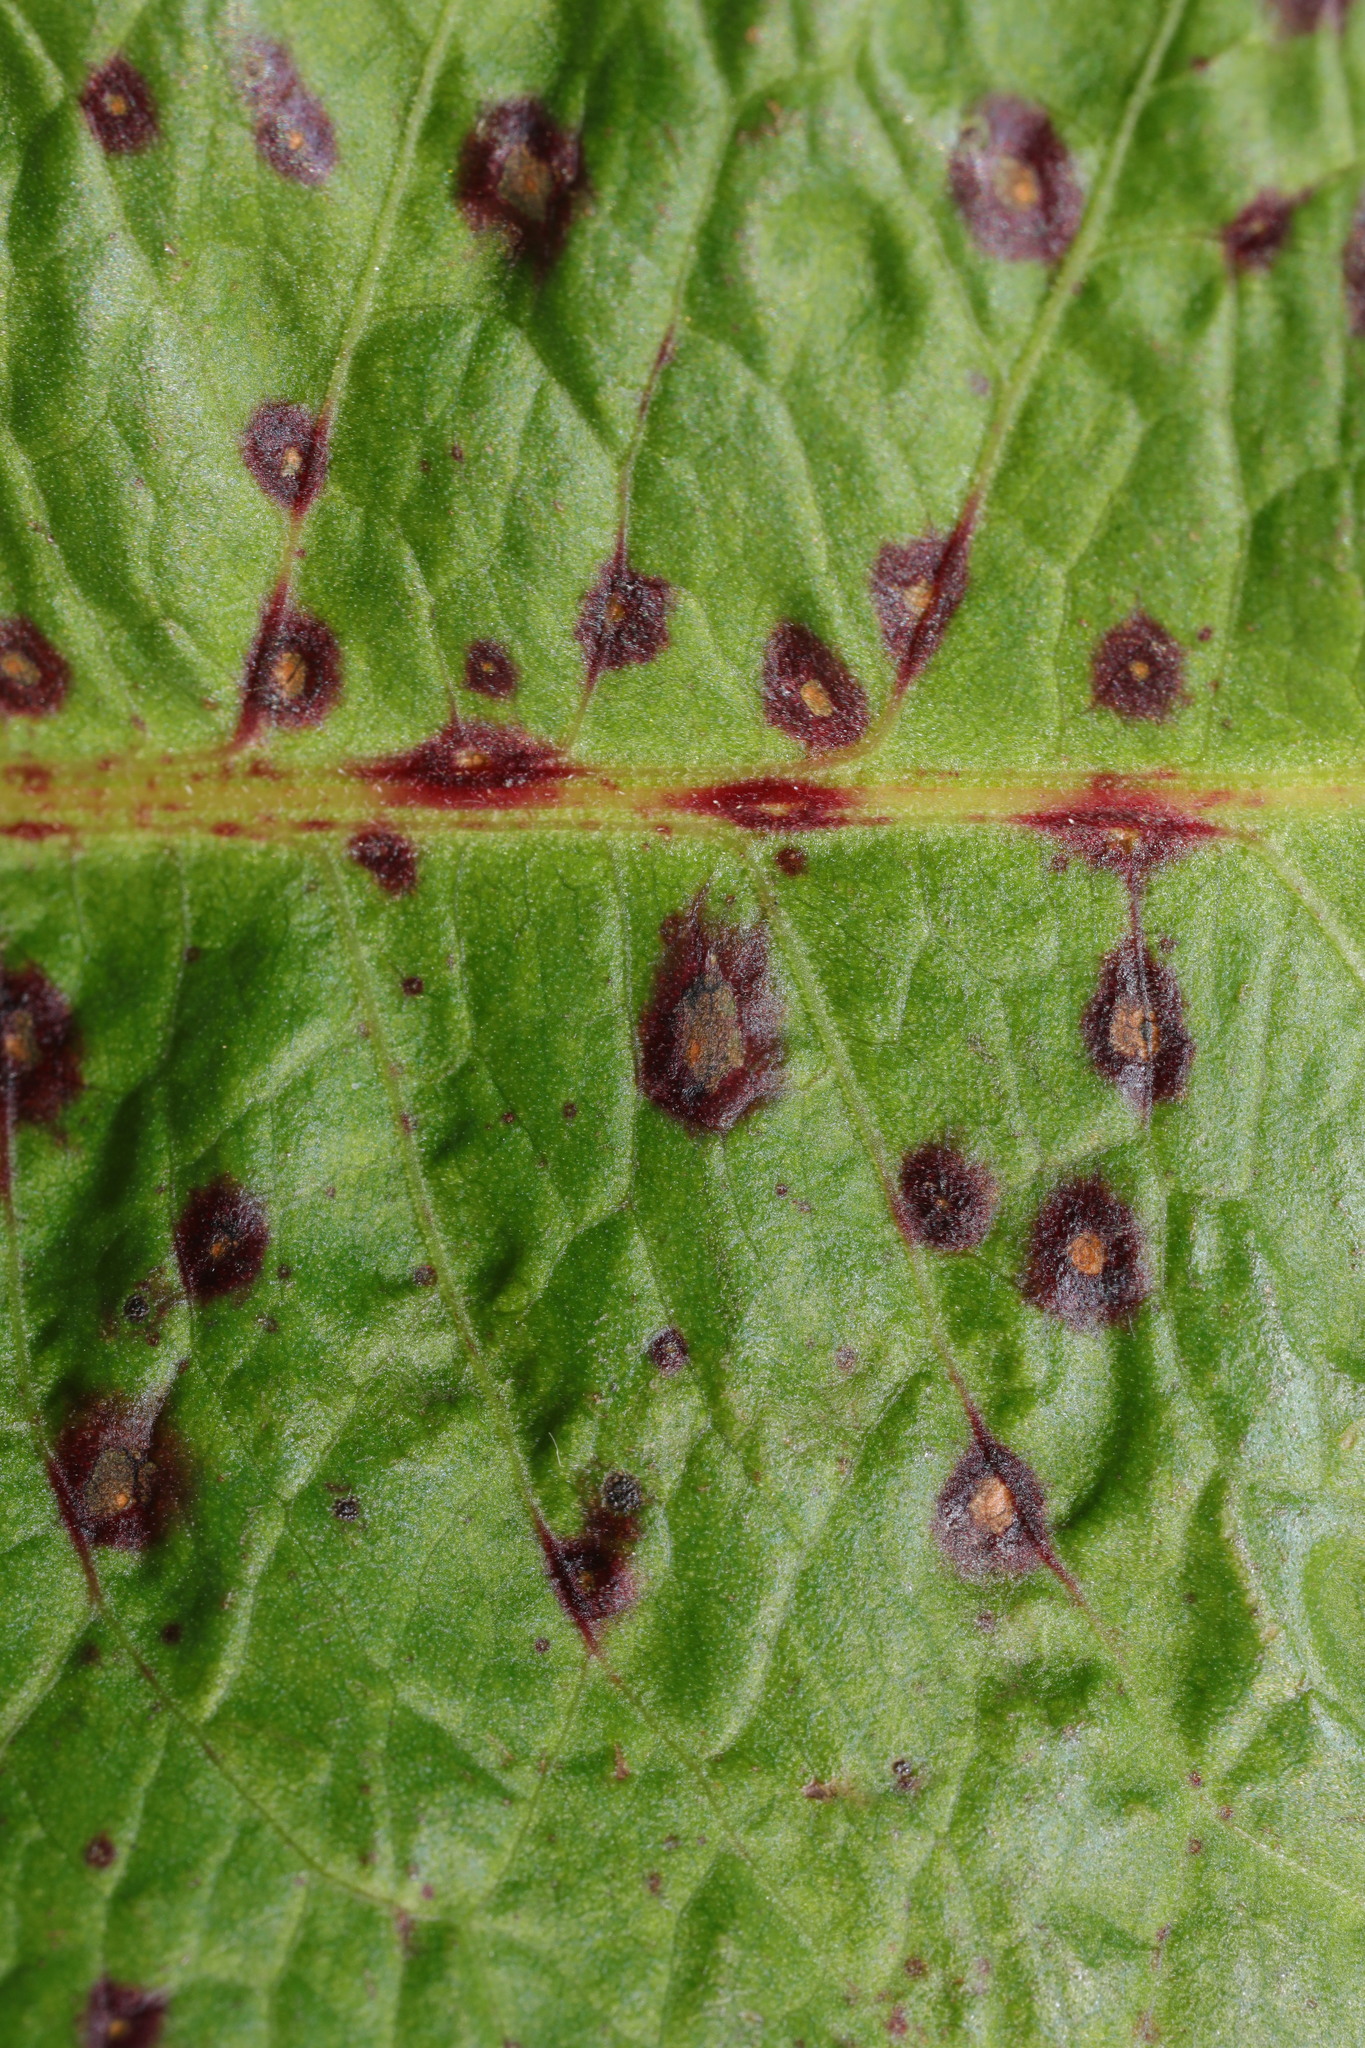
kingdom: Fungi
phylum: Ascomycota
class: Dothideomycetes
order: Mycosphaerellales
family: Mycosphaerellaceae
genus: Ramularia
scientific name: Ramularia rubella
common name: Red dock spot
